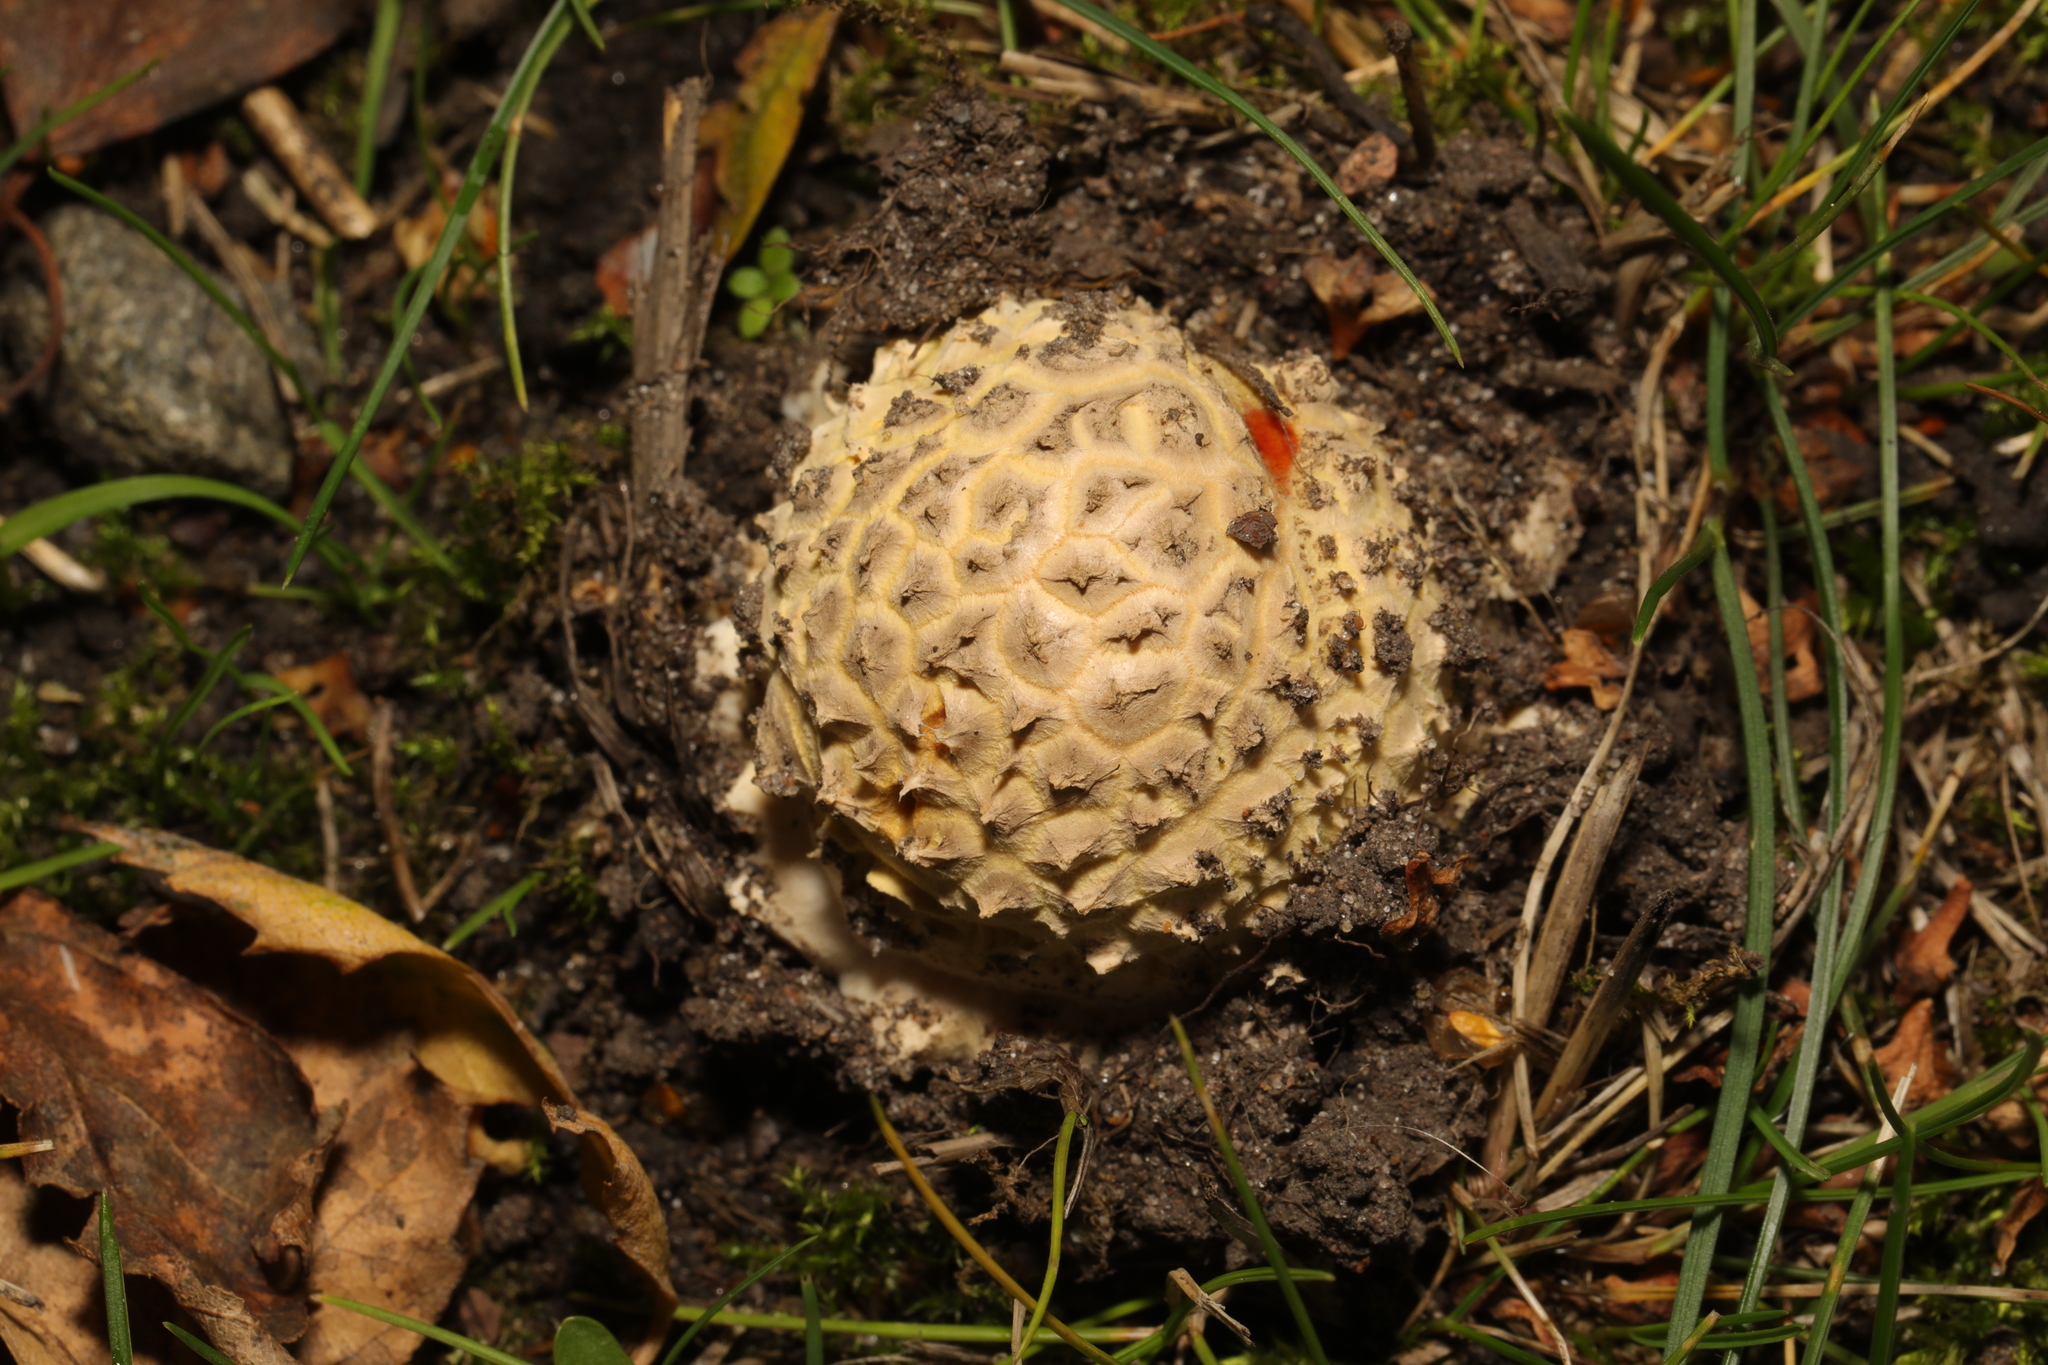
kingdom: Fungi
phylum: Basidiomycota
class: Agaricomycetes
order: Agaricales
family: Amanitaceae
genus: Amanita
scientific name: Amanita muscaria
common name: Fly agaric
